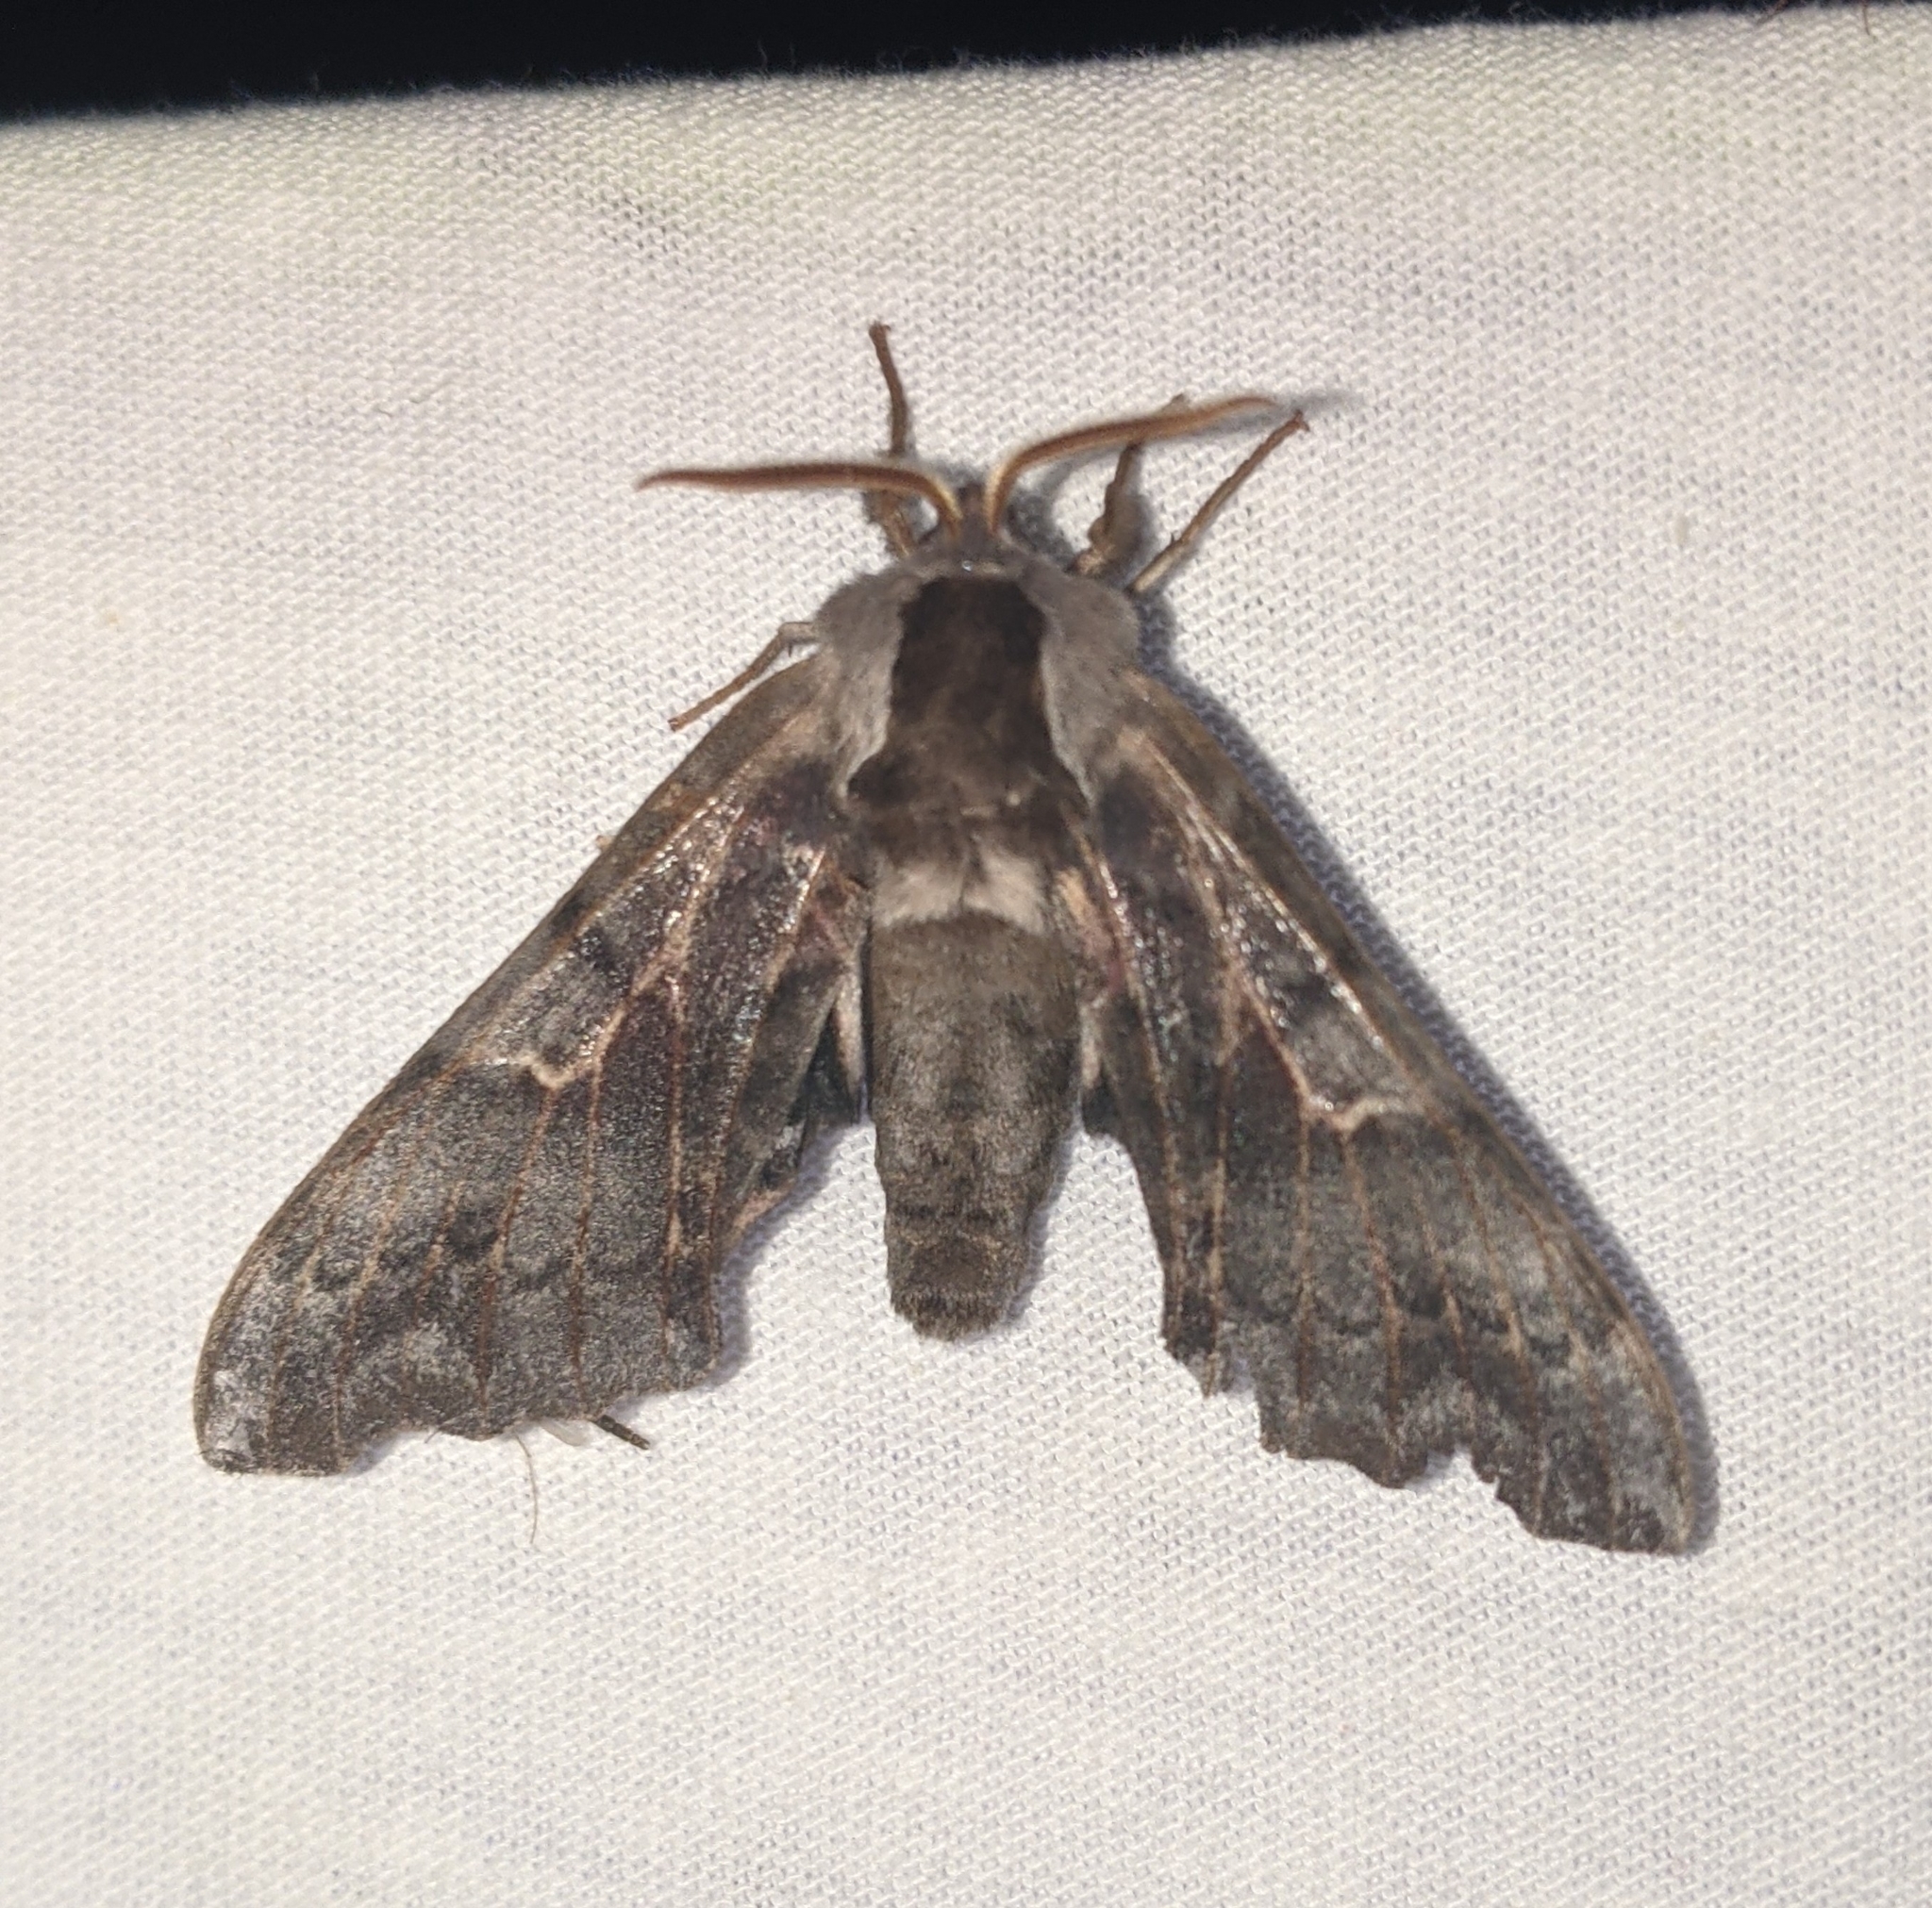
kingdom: Animalia
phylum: Arthropoda
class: Insecta
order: Lepidoptera
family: Sphingidae
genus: Smerinthus
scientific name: Smerinthus cerisyi
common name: Cerisy's sphinx moth
